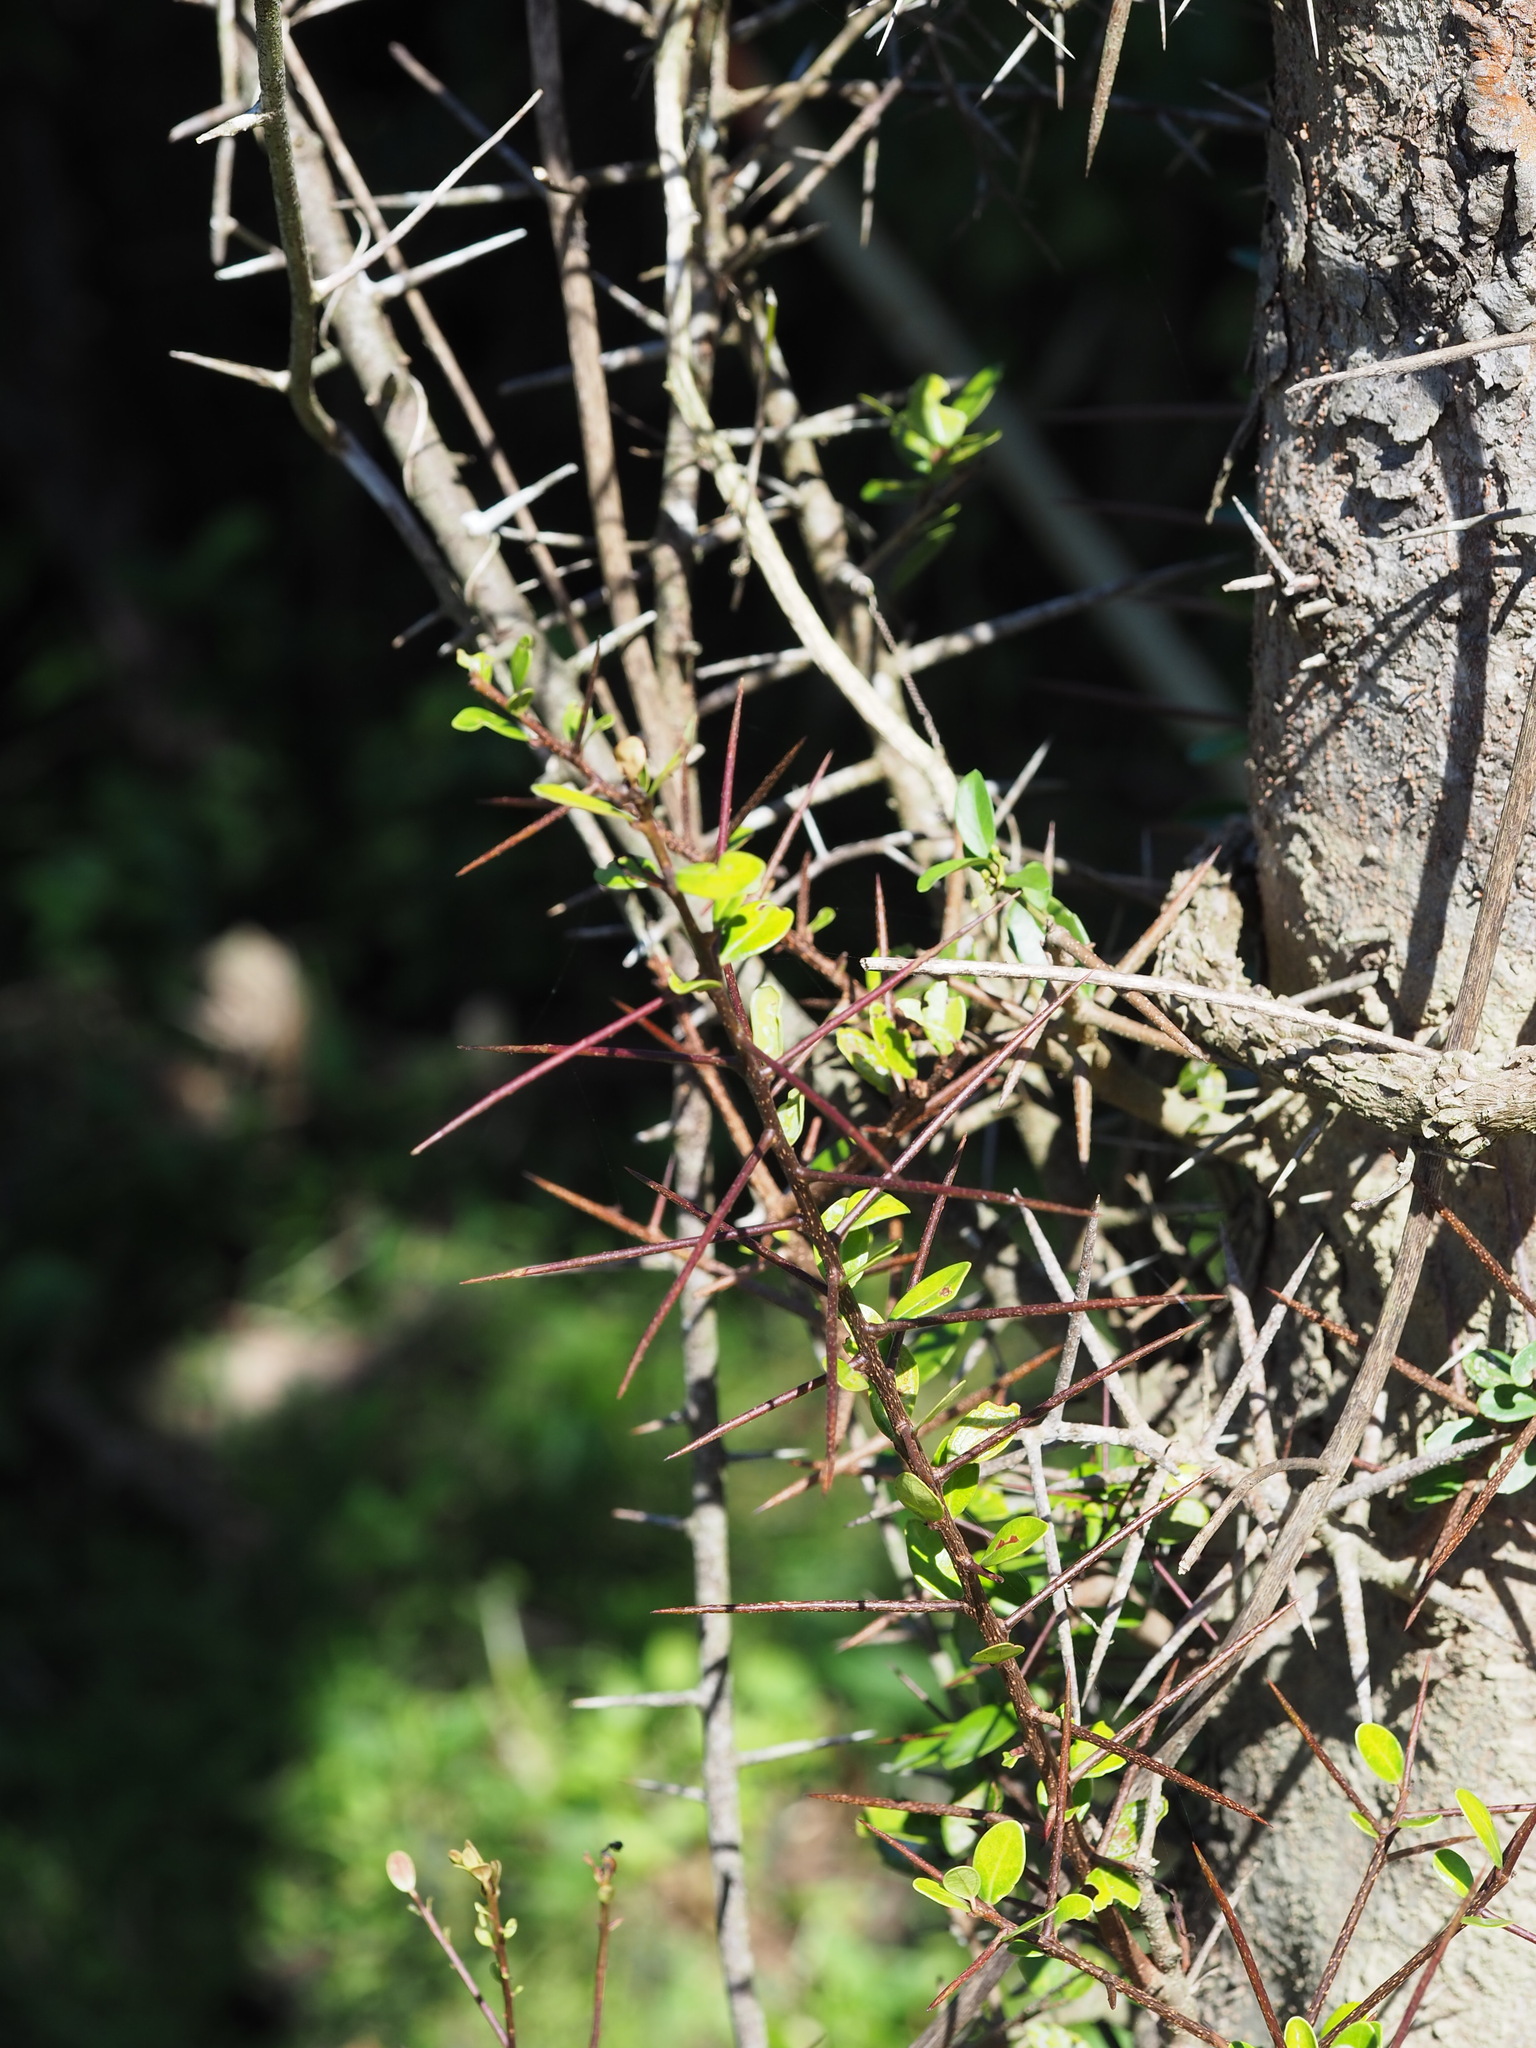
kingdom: Plantae
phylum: Tracheophyta
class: Magnoliopsida
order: Malpighiales
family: Salicaceae
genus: Scolopia
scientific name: Scolopia oldhamii
